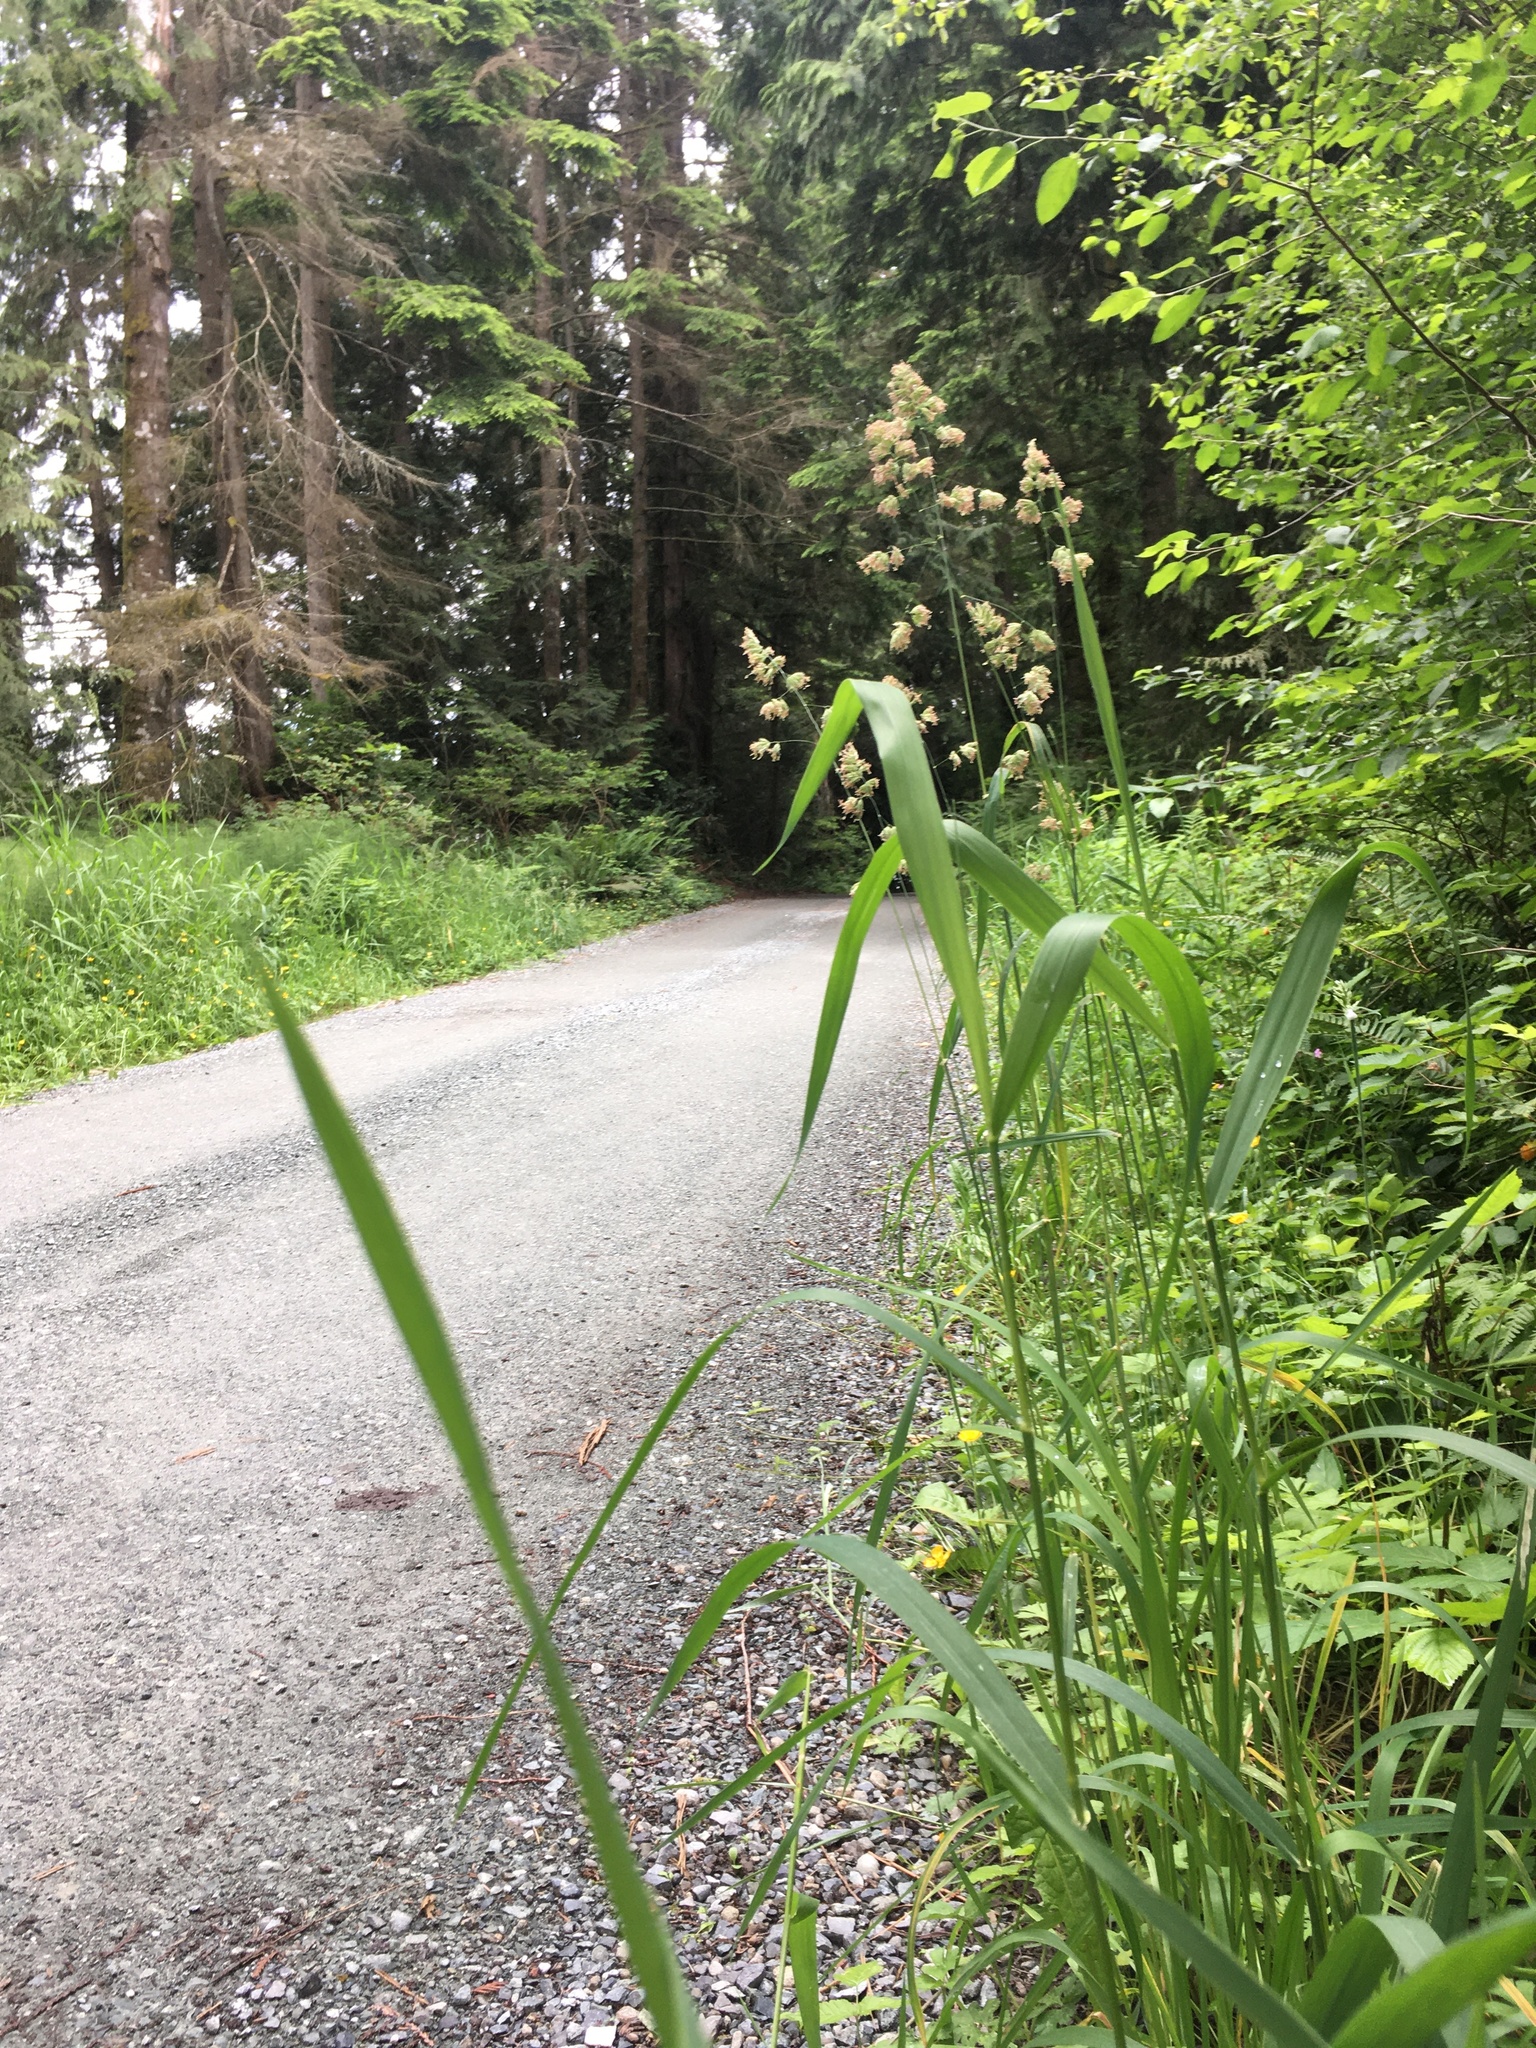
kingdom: Plantae
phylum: Tracheophyta
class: Liliopsida
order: Poales
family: Poaceae
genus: Dactylis
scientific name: Dactylis glomerata
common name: Orchardgrass
